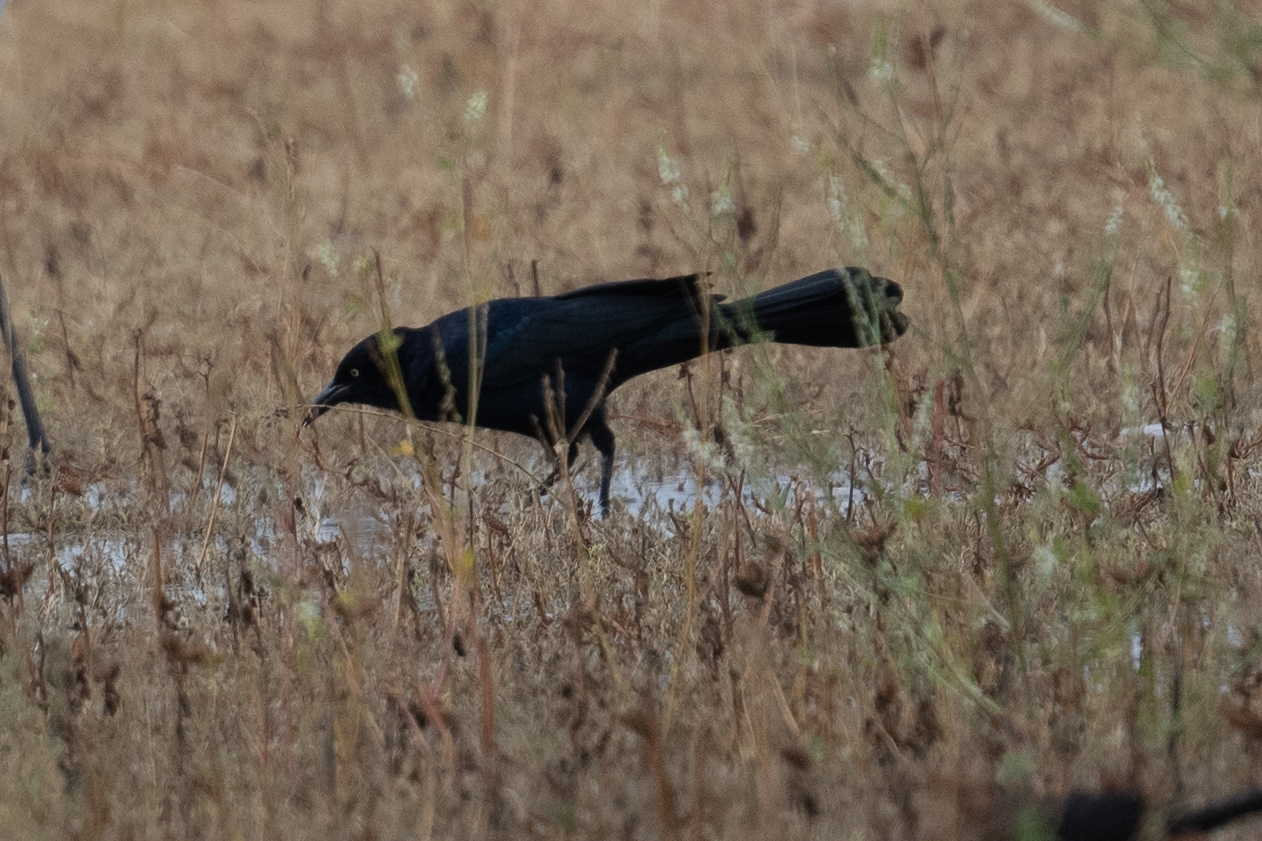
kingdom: Animalia
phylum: Chordata
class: Aves
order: Passeriformes
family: Icteridae
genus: Quiscalus
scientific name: Quiscalus mexicanus
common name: Great-tailed grackle
